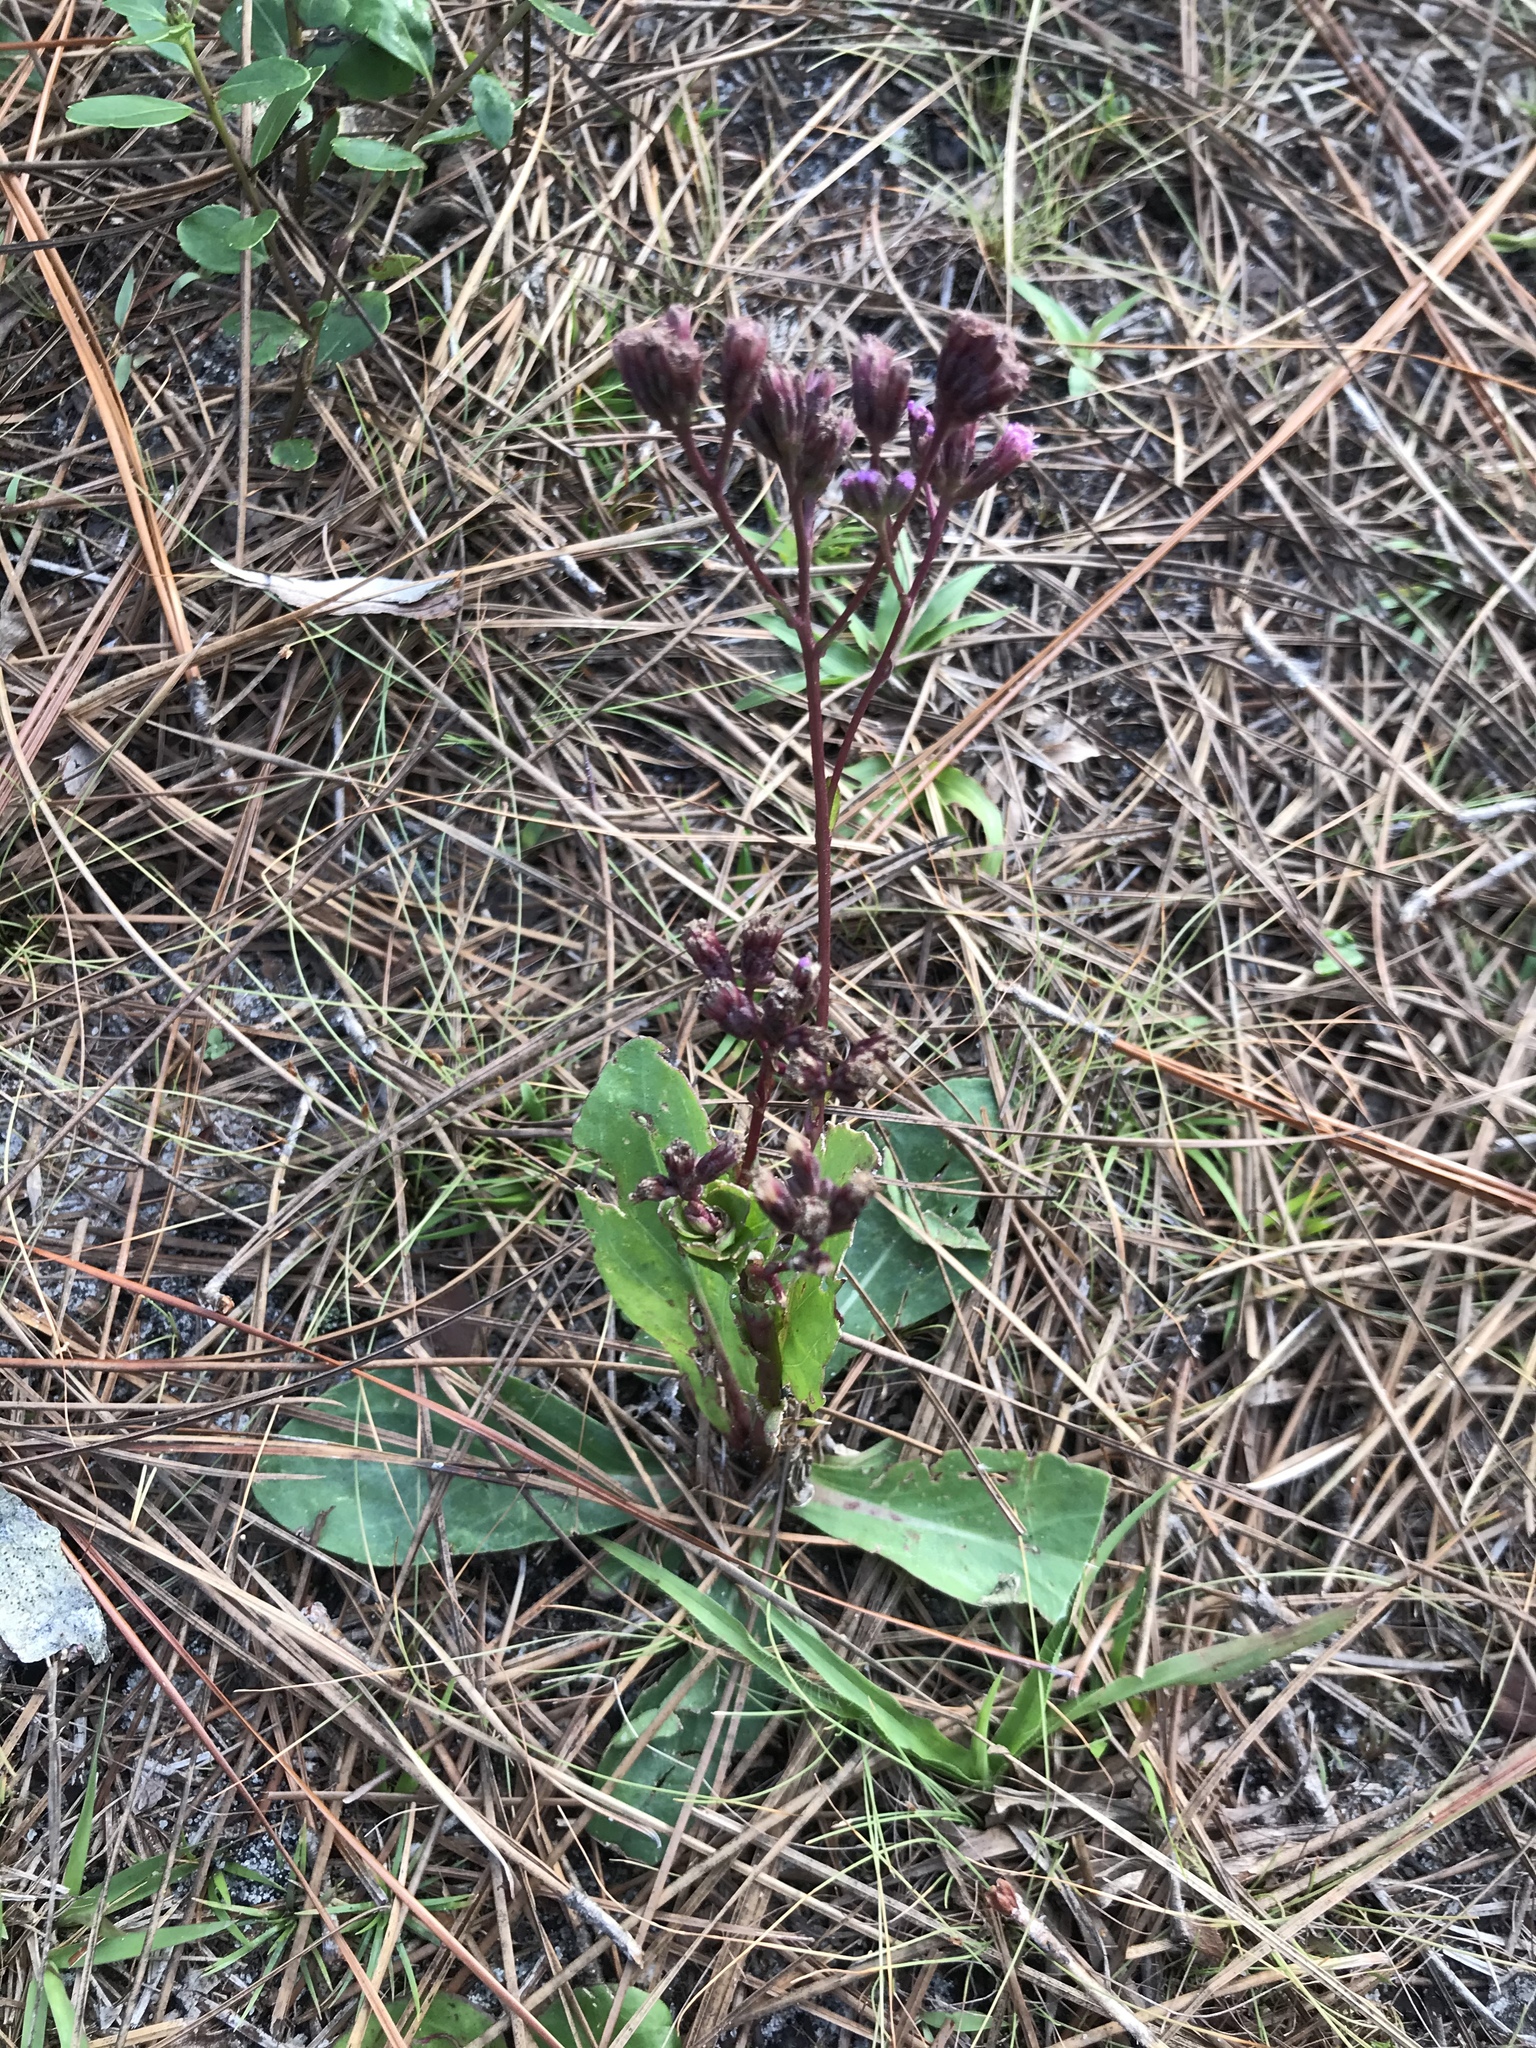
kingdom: Plantae
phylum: Tracheophyta
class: Magnoliopsida
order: Asterales
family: Asteraceae
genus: Carphephorus
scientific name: Carphephorus odoratissimus
